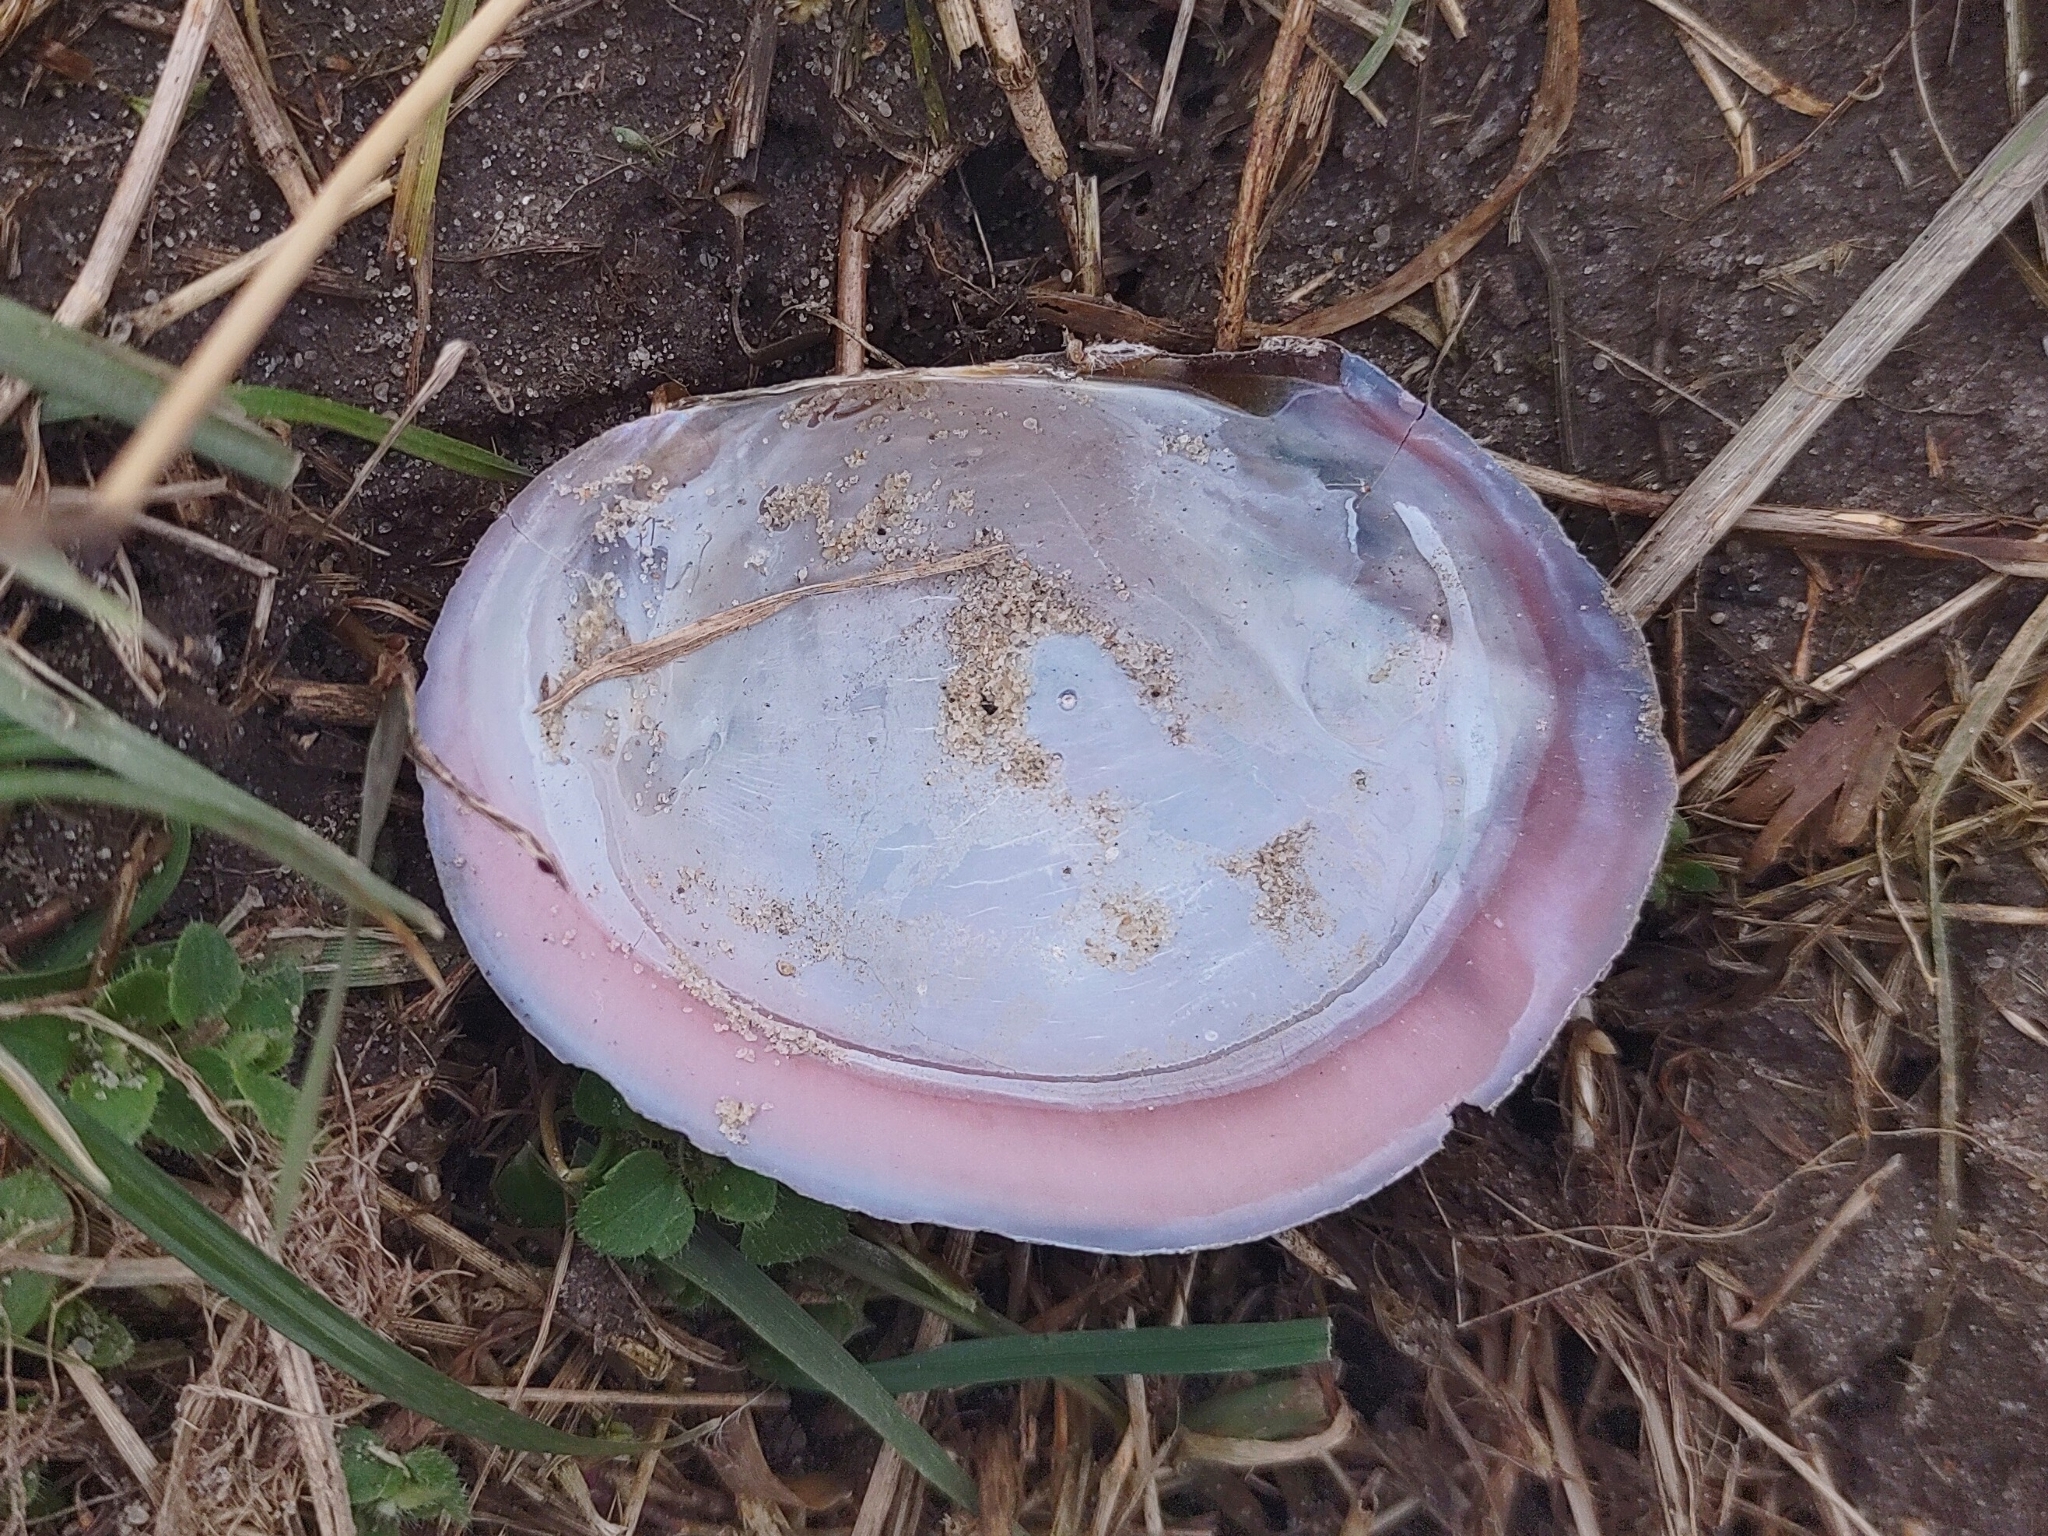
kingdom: Animalia
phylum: Mollusca
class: Bivalvia
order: Unionida
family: Unionidae
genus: Sinanodonta
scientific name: Sinanodonta woodiana
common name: Chinese pond mussel
